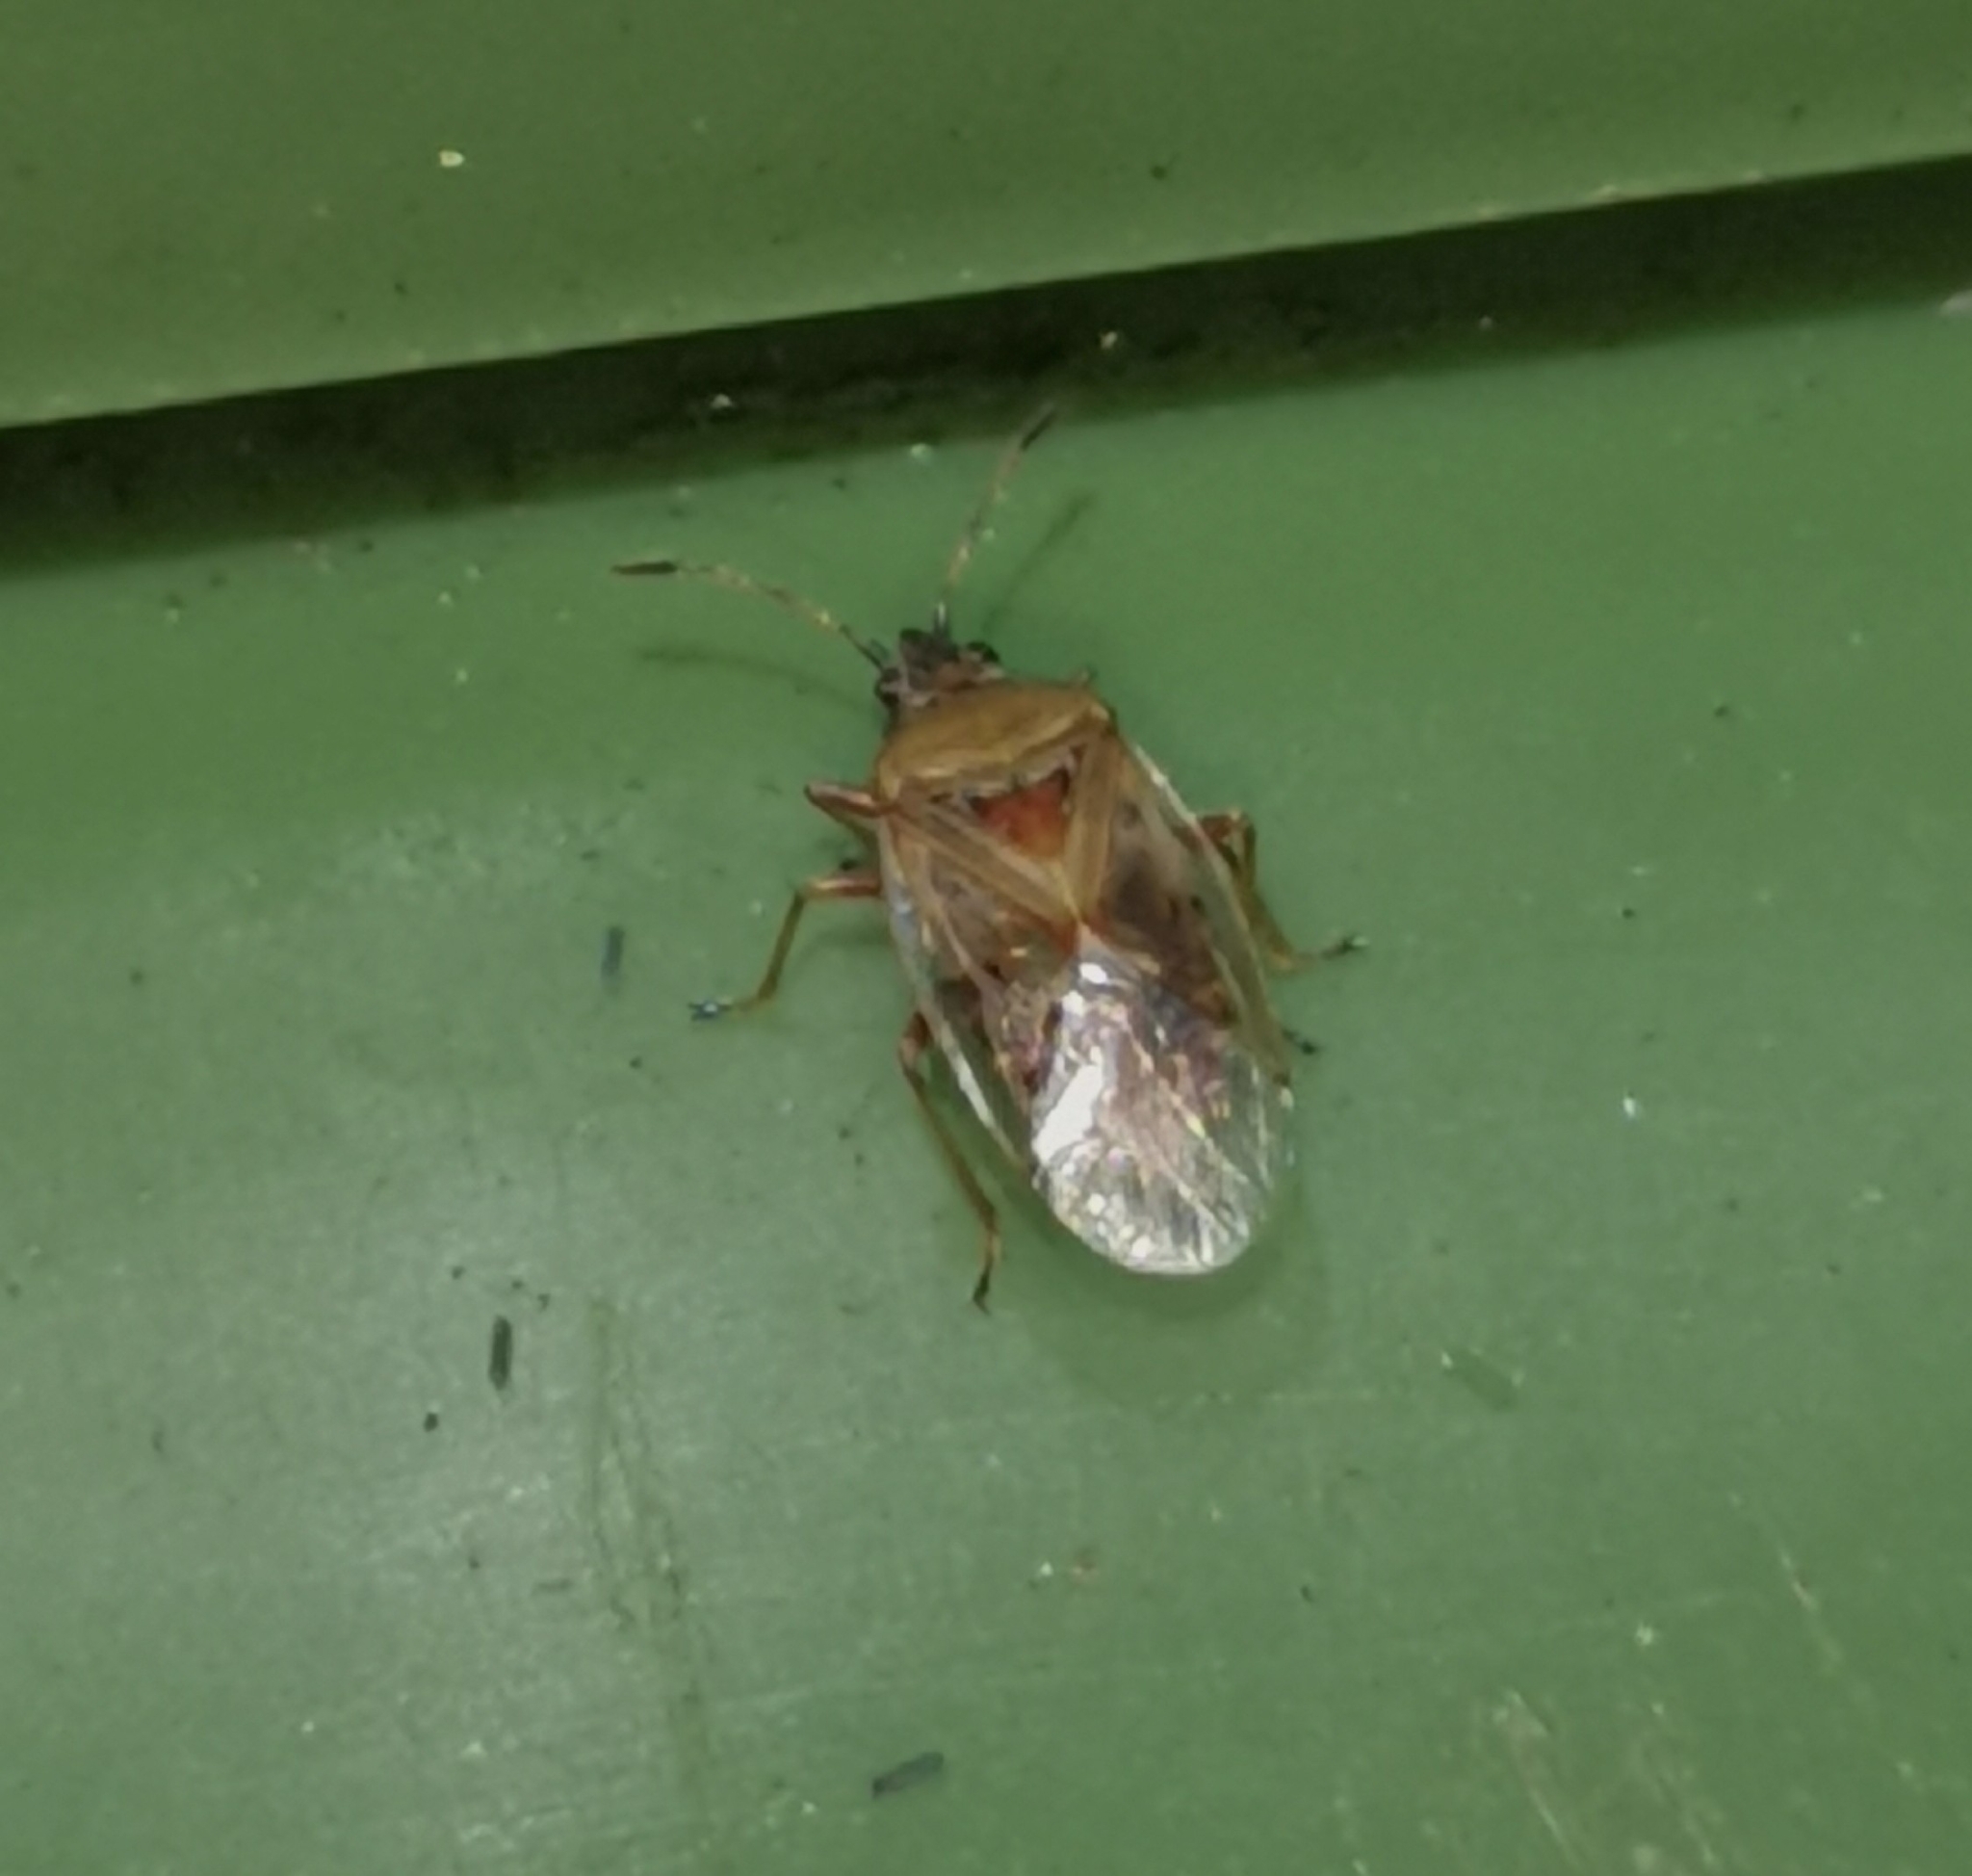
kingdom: Animalia
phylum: Arthropoda
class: Insecta
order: Hemiptera
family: Lygaeidae
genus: Kleidocerys
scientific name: Kleidocerys resedae
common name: Birch catkin bug
